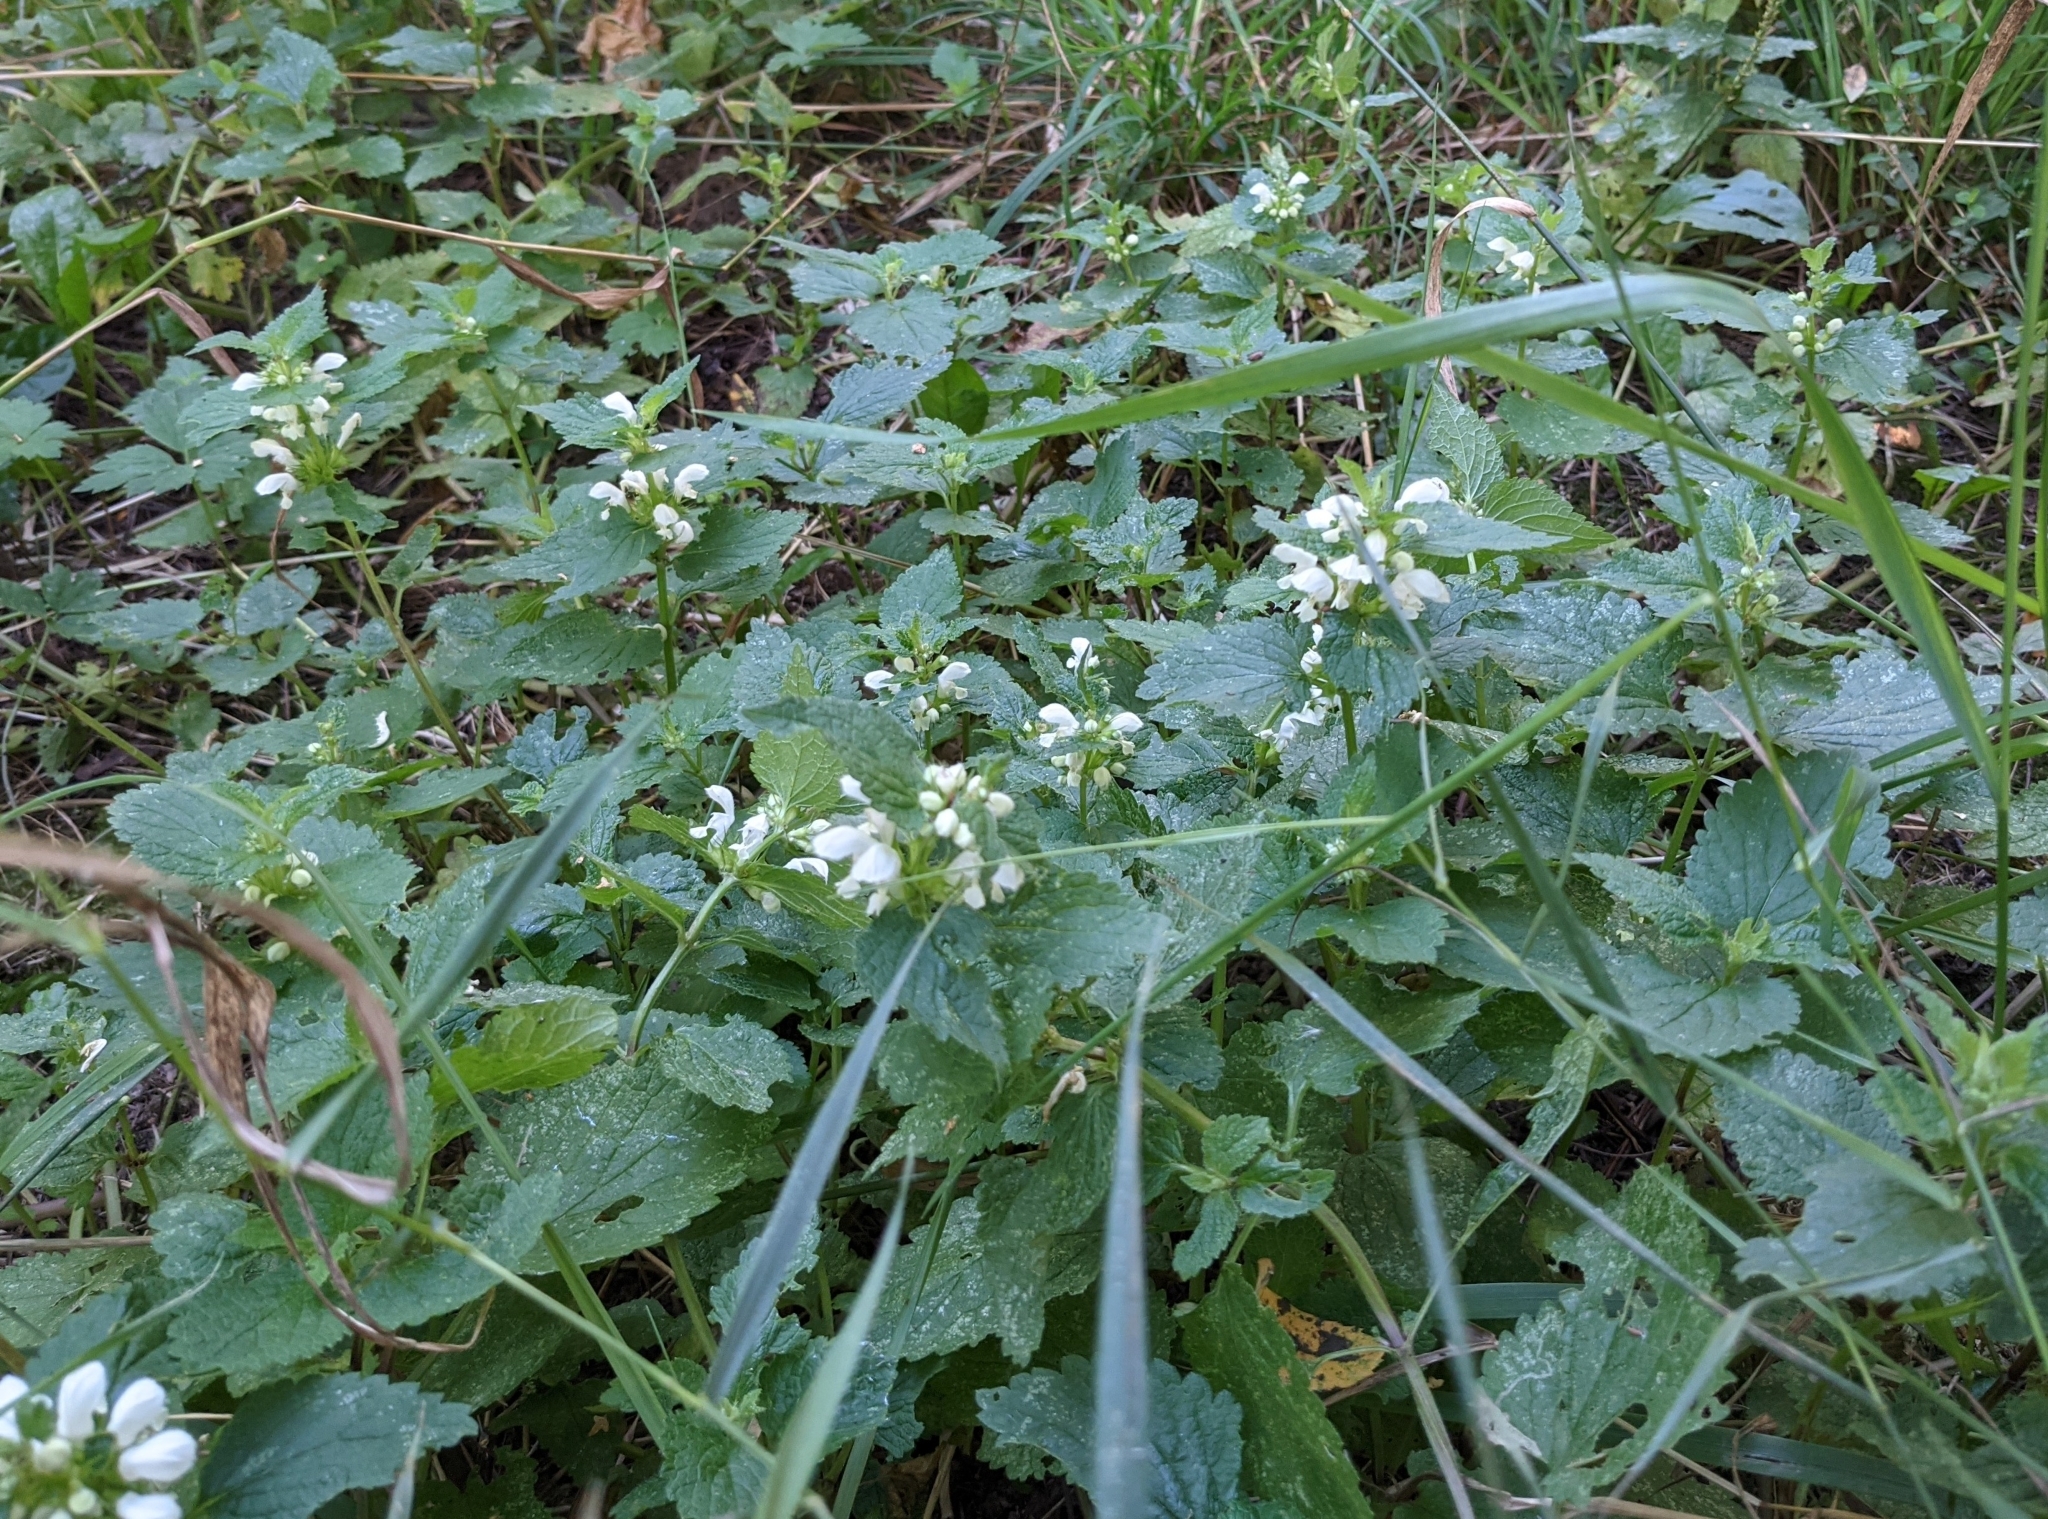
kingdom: Plantae
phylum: Tracheophyta
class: Magnoliopsida
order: Lamiales
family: Lamiaceae
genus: Lamium
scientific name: Lamium album
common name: White dead-nettle
